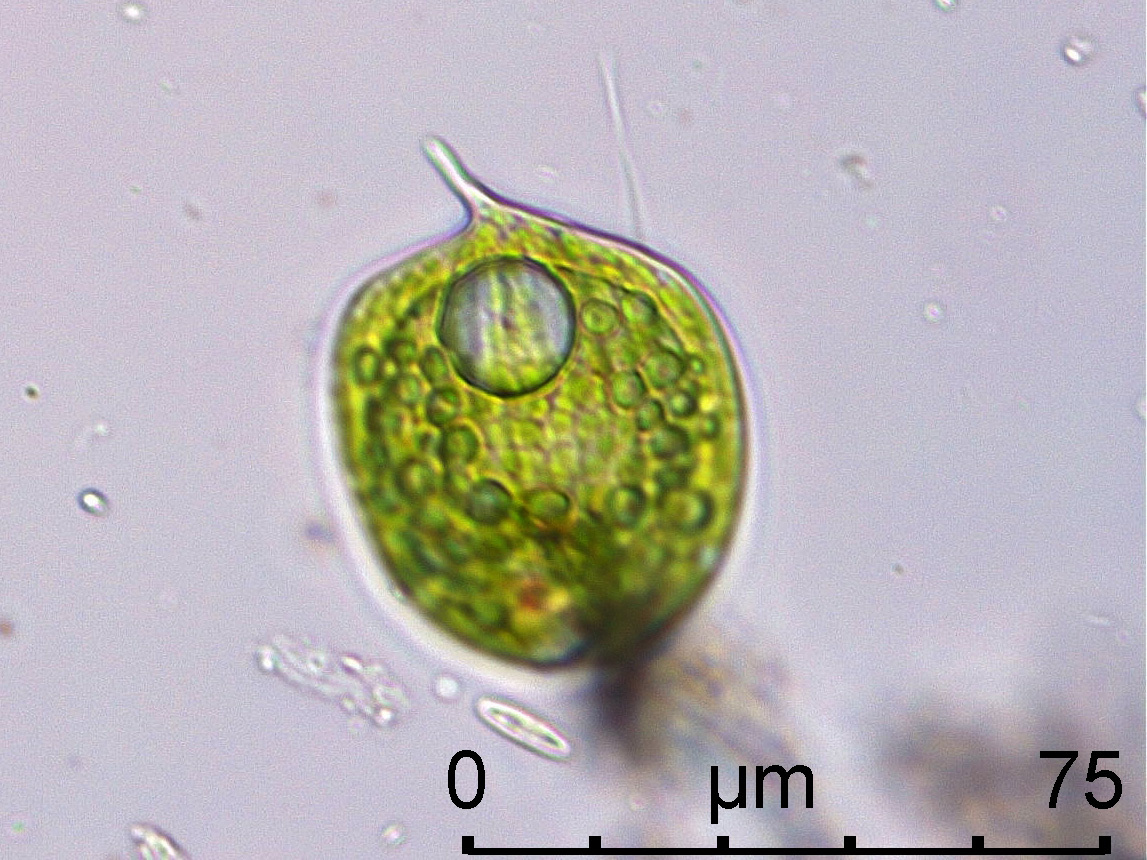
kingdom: Protozoa
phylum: Euglenozoa
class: Euglenoidea
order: Euglenida
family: Phacidae
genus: Phacus
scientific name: Phacus orbicularis
